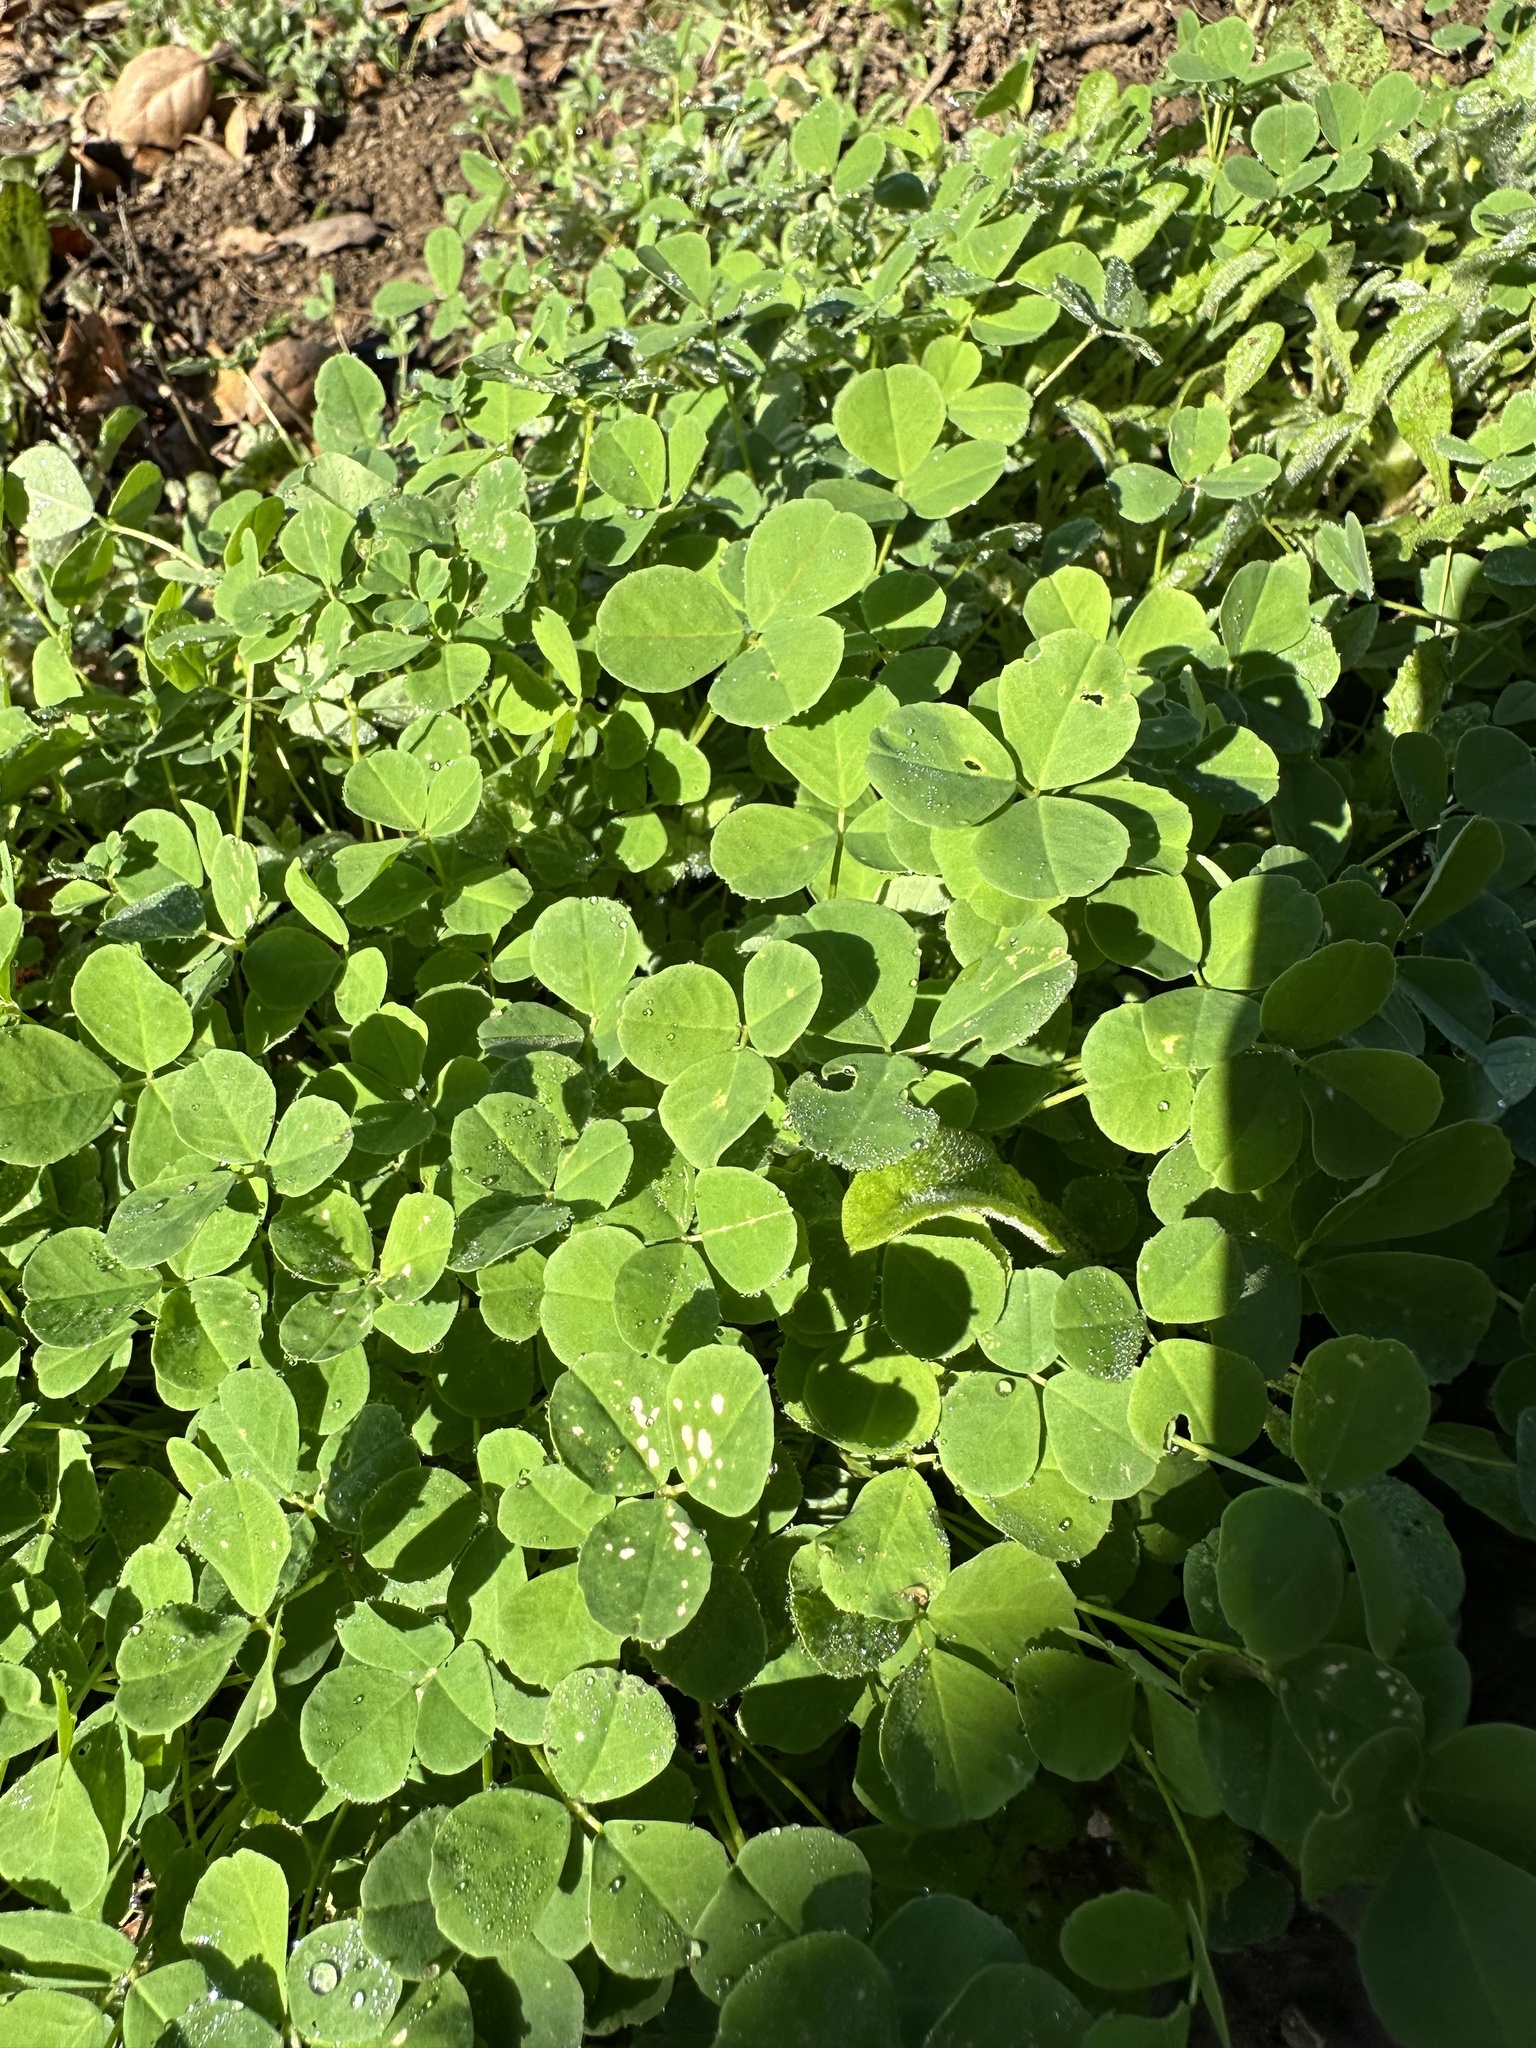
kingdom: Plantae
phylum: Tracheophyta
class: Magnoliopsida
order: Fabales
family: Fabaceae
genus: Medicago
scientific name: Medicago polymorpha
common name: Burclover
